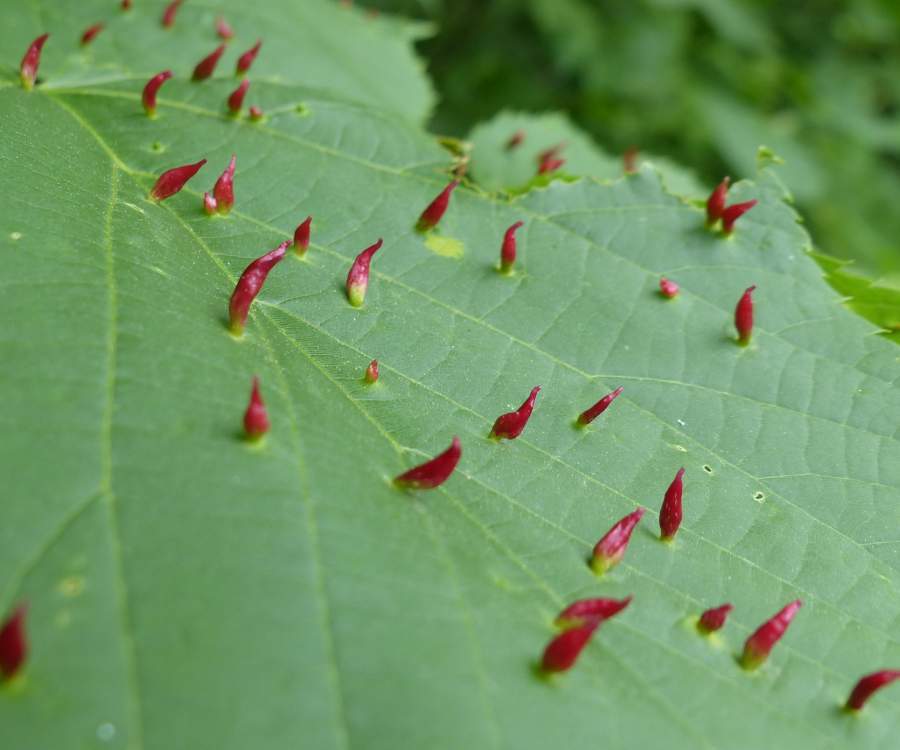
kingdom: Animalia
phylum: Arthropoda
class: Arachnida
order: Trombidiformes
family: Eriophyidae
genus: Eriophyes
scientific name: Eriophyes tiliae
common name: Red nail gall mite
